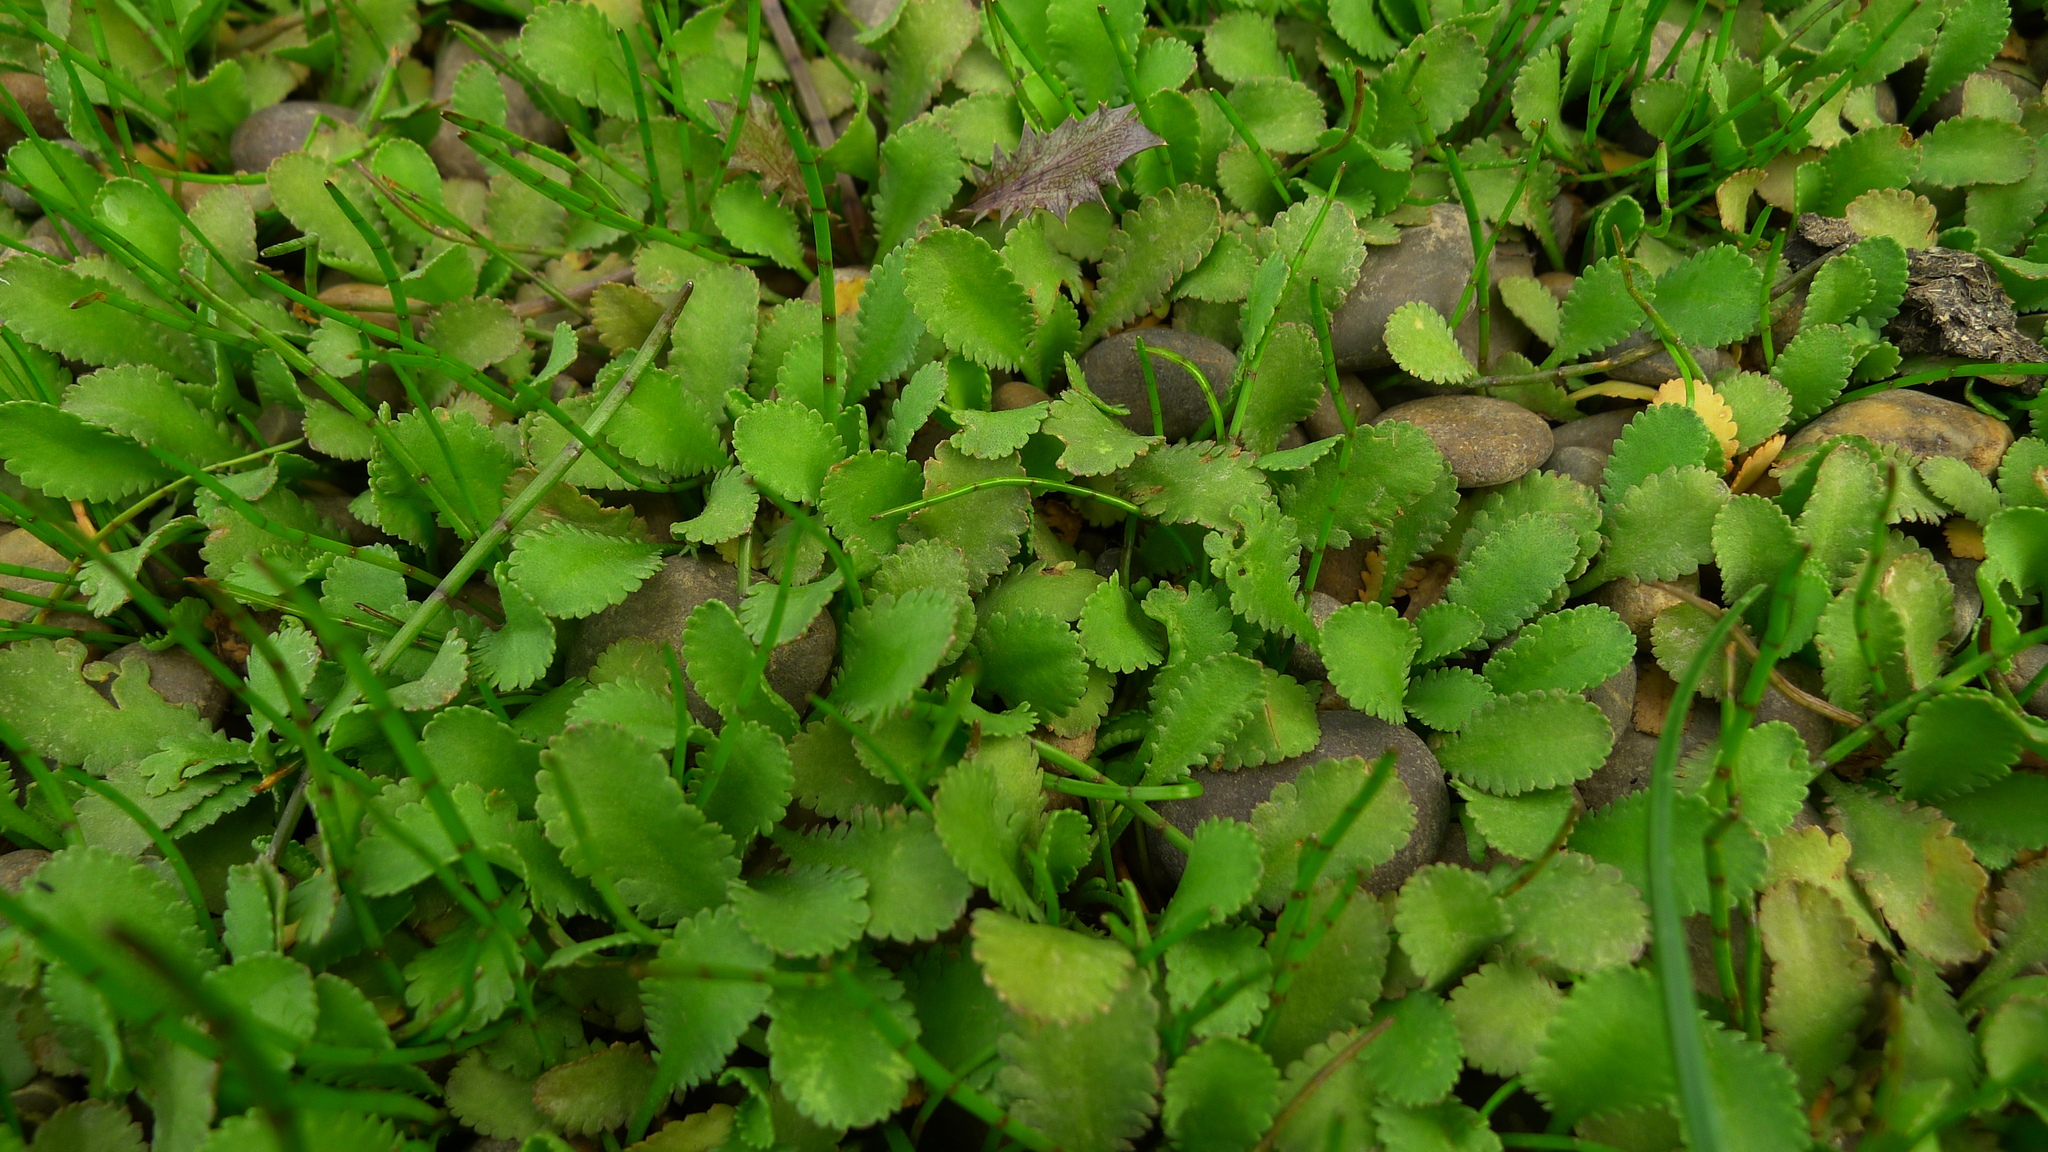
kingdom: Plantae
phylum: Tracheophyta
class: Magnoliopsida
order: Asterales
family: Asteraceae
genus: Leptinella
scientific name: Leptinella dioica
